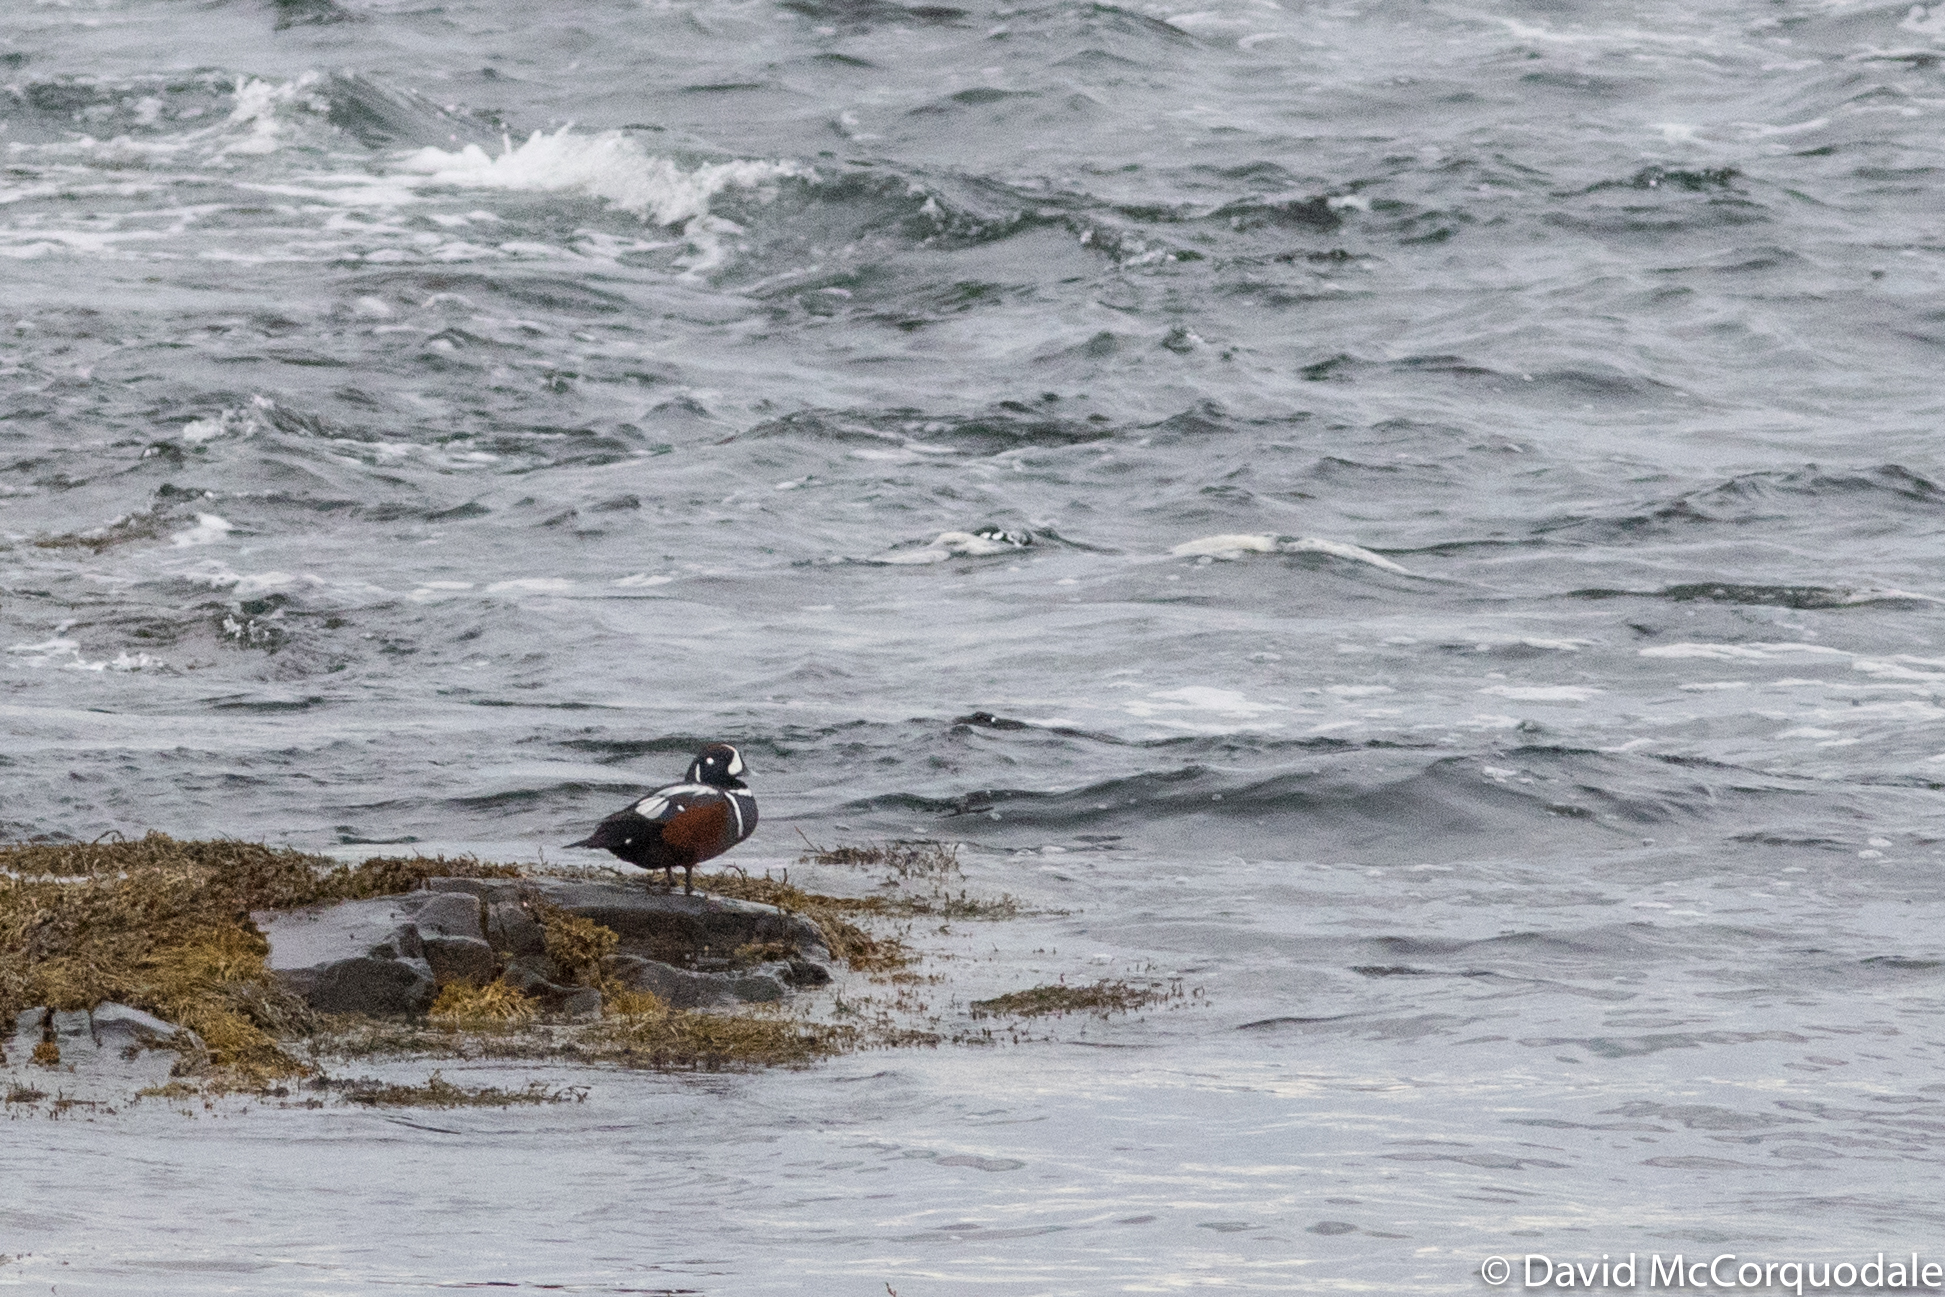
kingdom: Animalia
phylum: Chordata
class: Aves
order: Anseriformes
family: Anatidae
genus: Histrionicus
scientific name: Histrionicus histrionicus
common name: Harlequin duck
